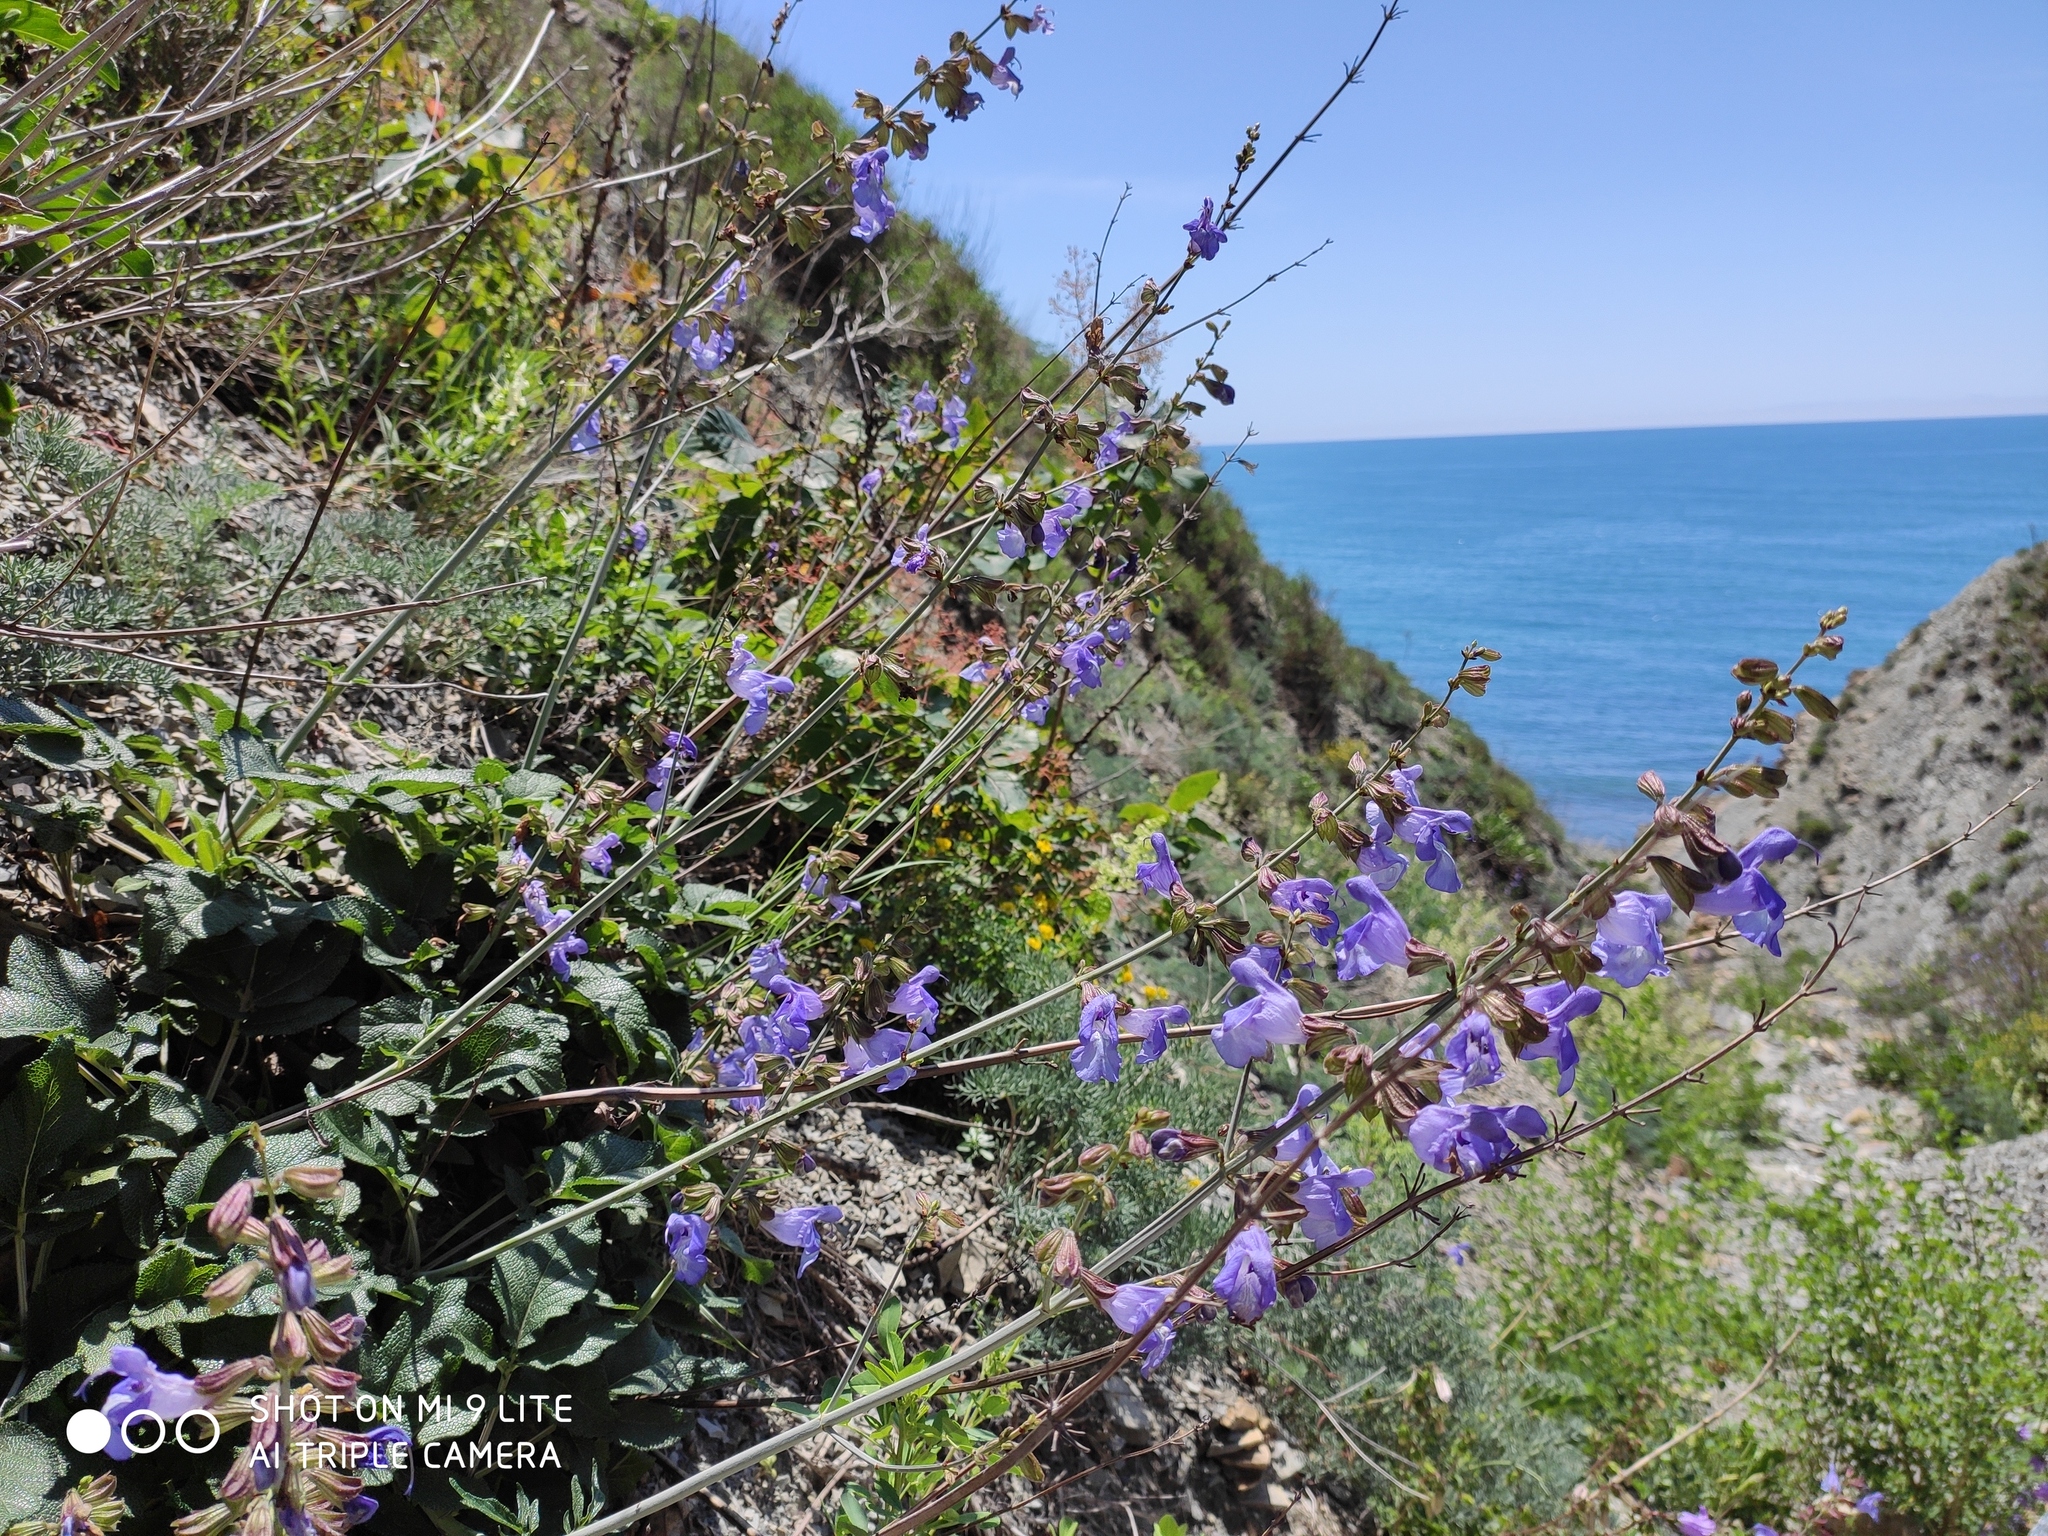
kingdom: Plantae
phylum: Tracheophyta
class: Magnoliopsida
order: Lamiales
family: Lamiaceae
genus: Salvia
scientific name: Salvia ringens
